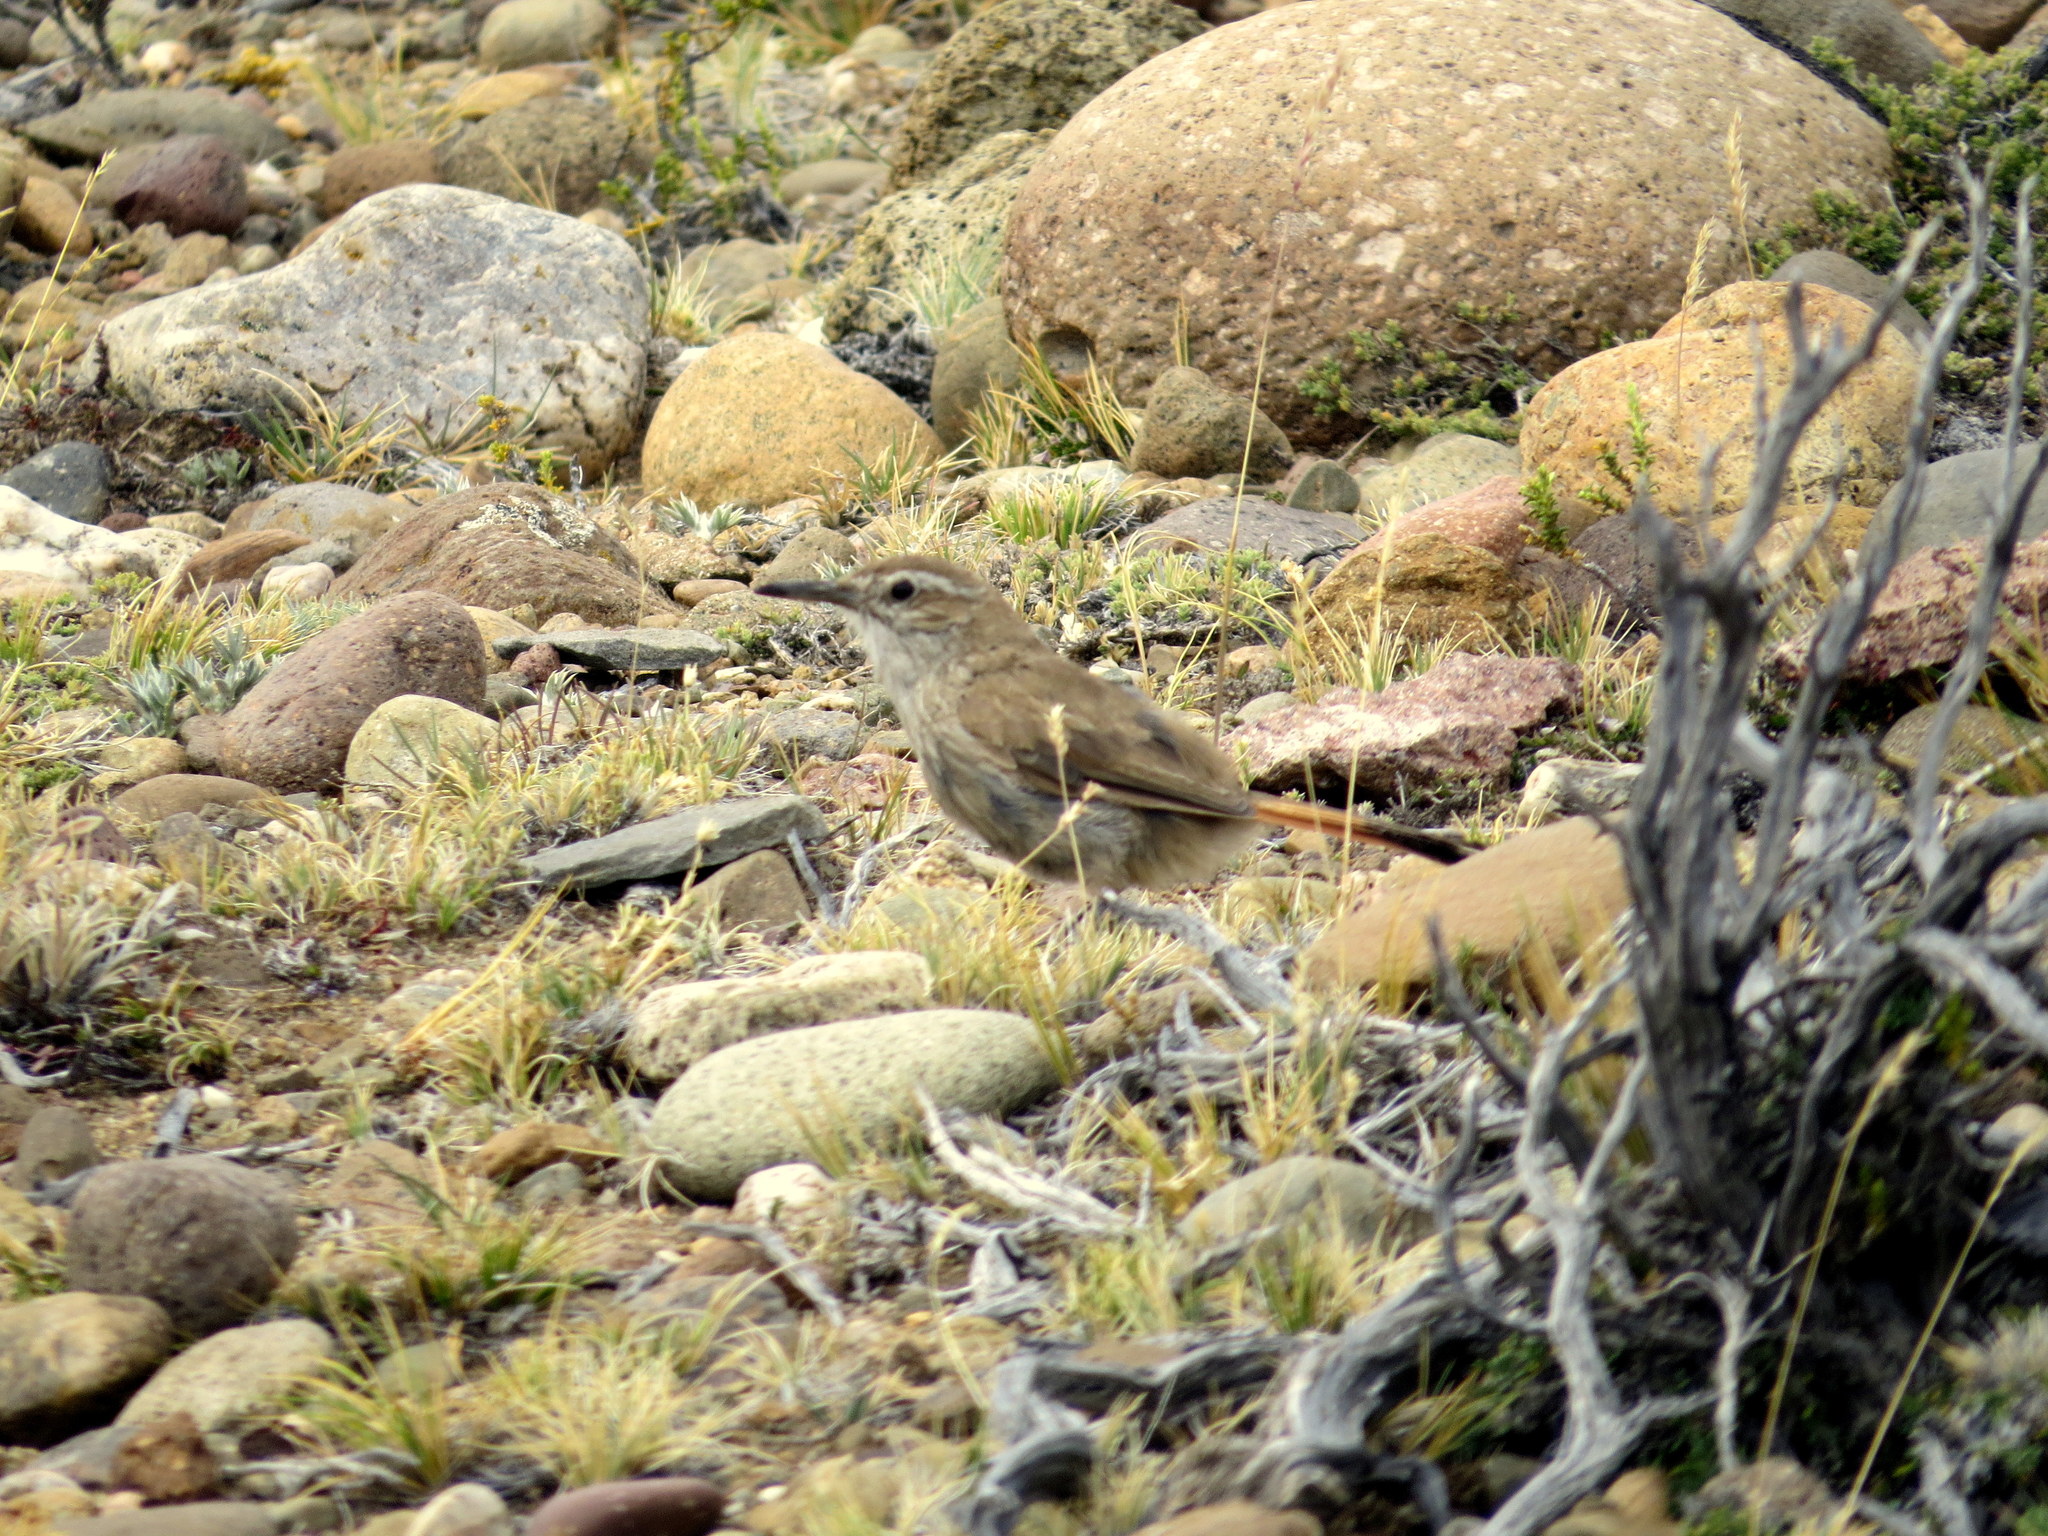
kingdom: Animalia
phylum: Chordata
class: Aves
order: Passeriformes
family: Furnariidae
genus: Eremobius
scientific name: Eremobius phoenicurus
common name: Band-tailed eremobius
